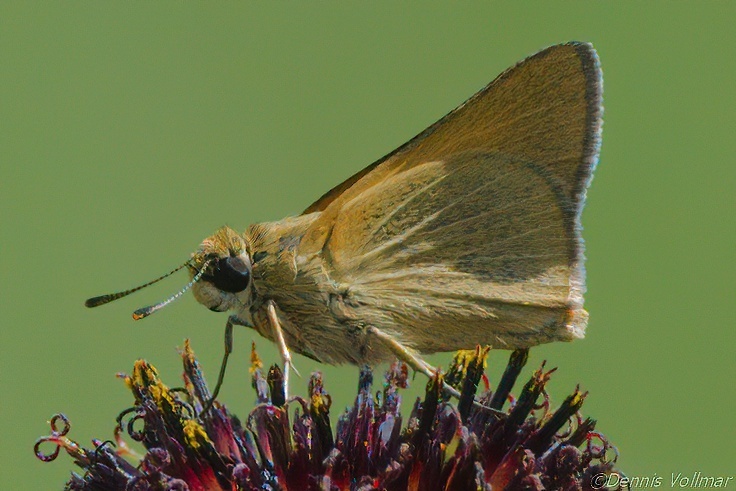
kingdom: Animalia
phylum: Arthropoda
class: Insecta
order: Lepidoptera
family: Hesperiidae
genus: Atrytone
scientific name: Atrytone arogos
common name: Arogos skipper
